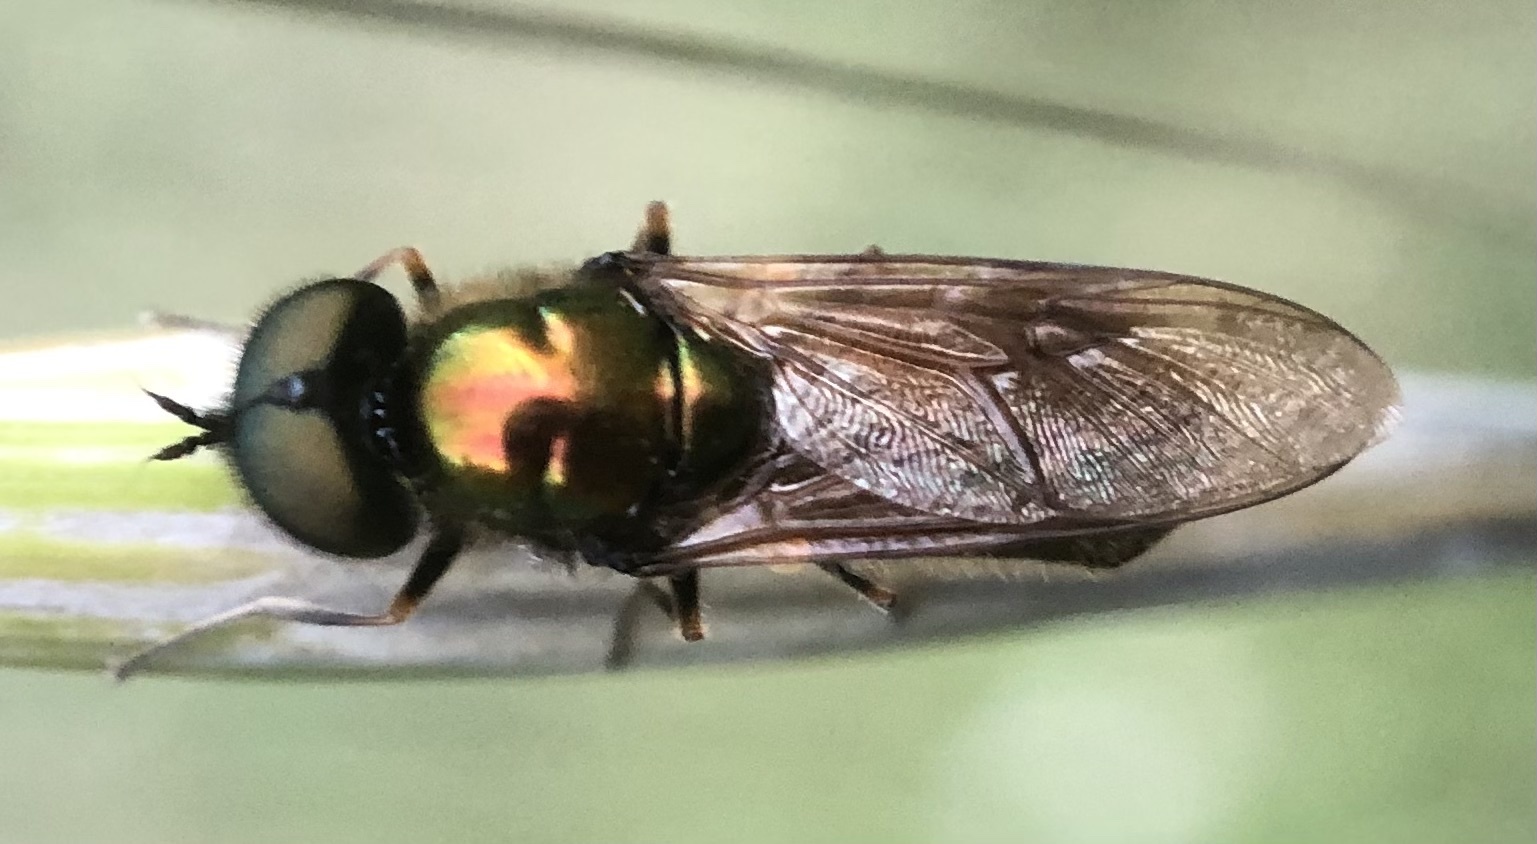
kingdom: Animalia
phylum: Arthropoda
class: Insecta
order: Diptera
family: Stratiomyidae
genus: Chloromyia
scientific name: Chloromyia formosa
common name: Soldier fly
